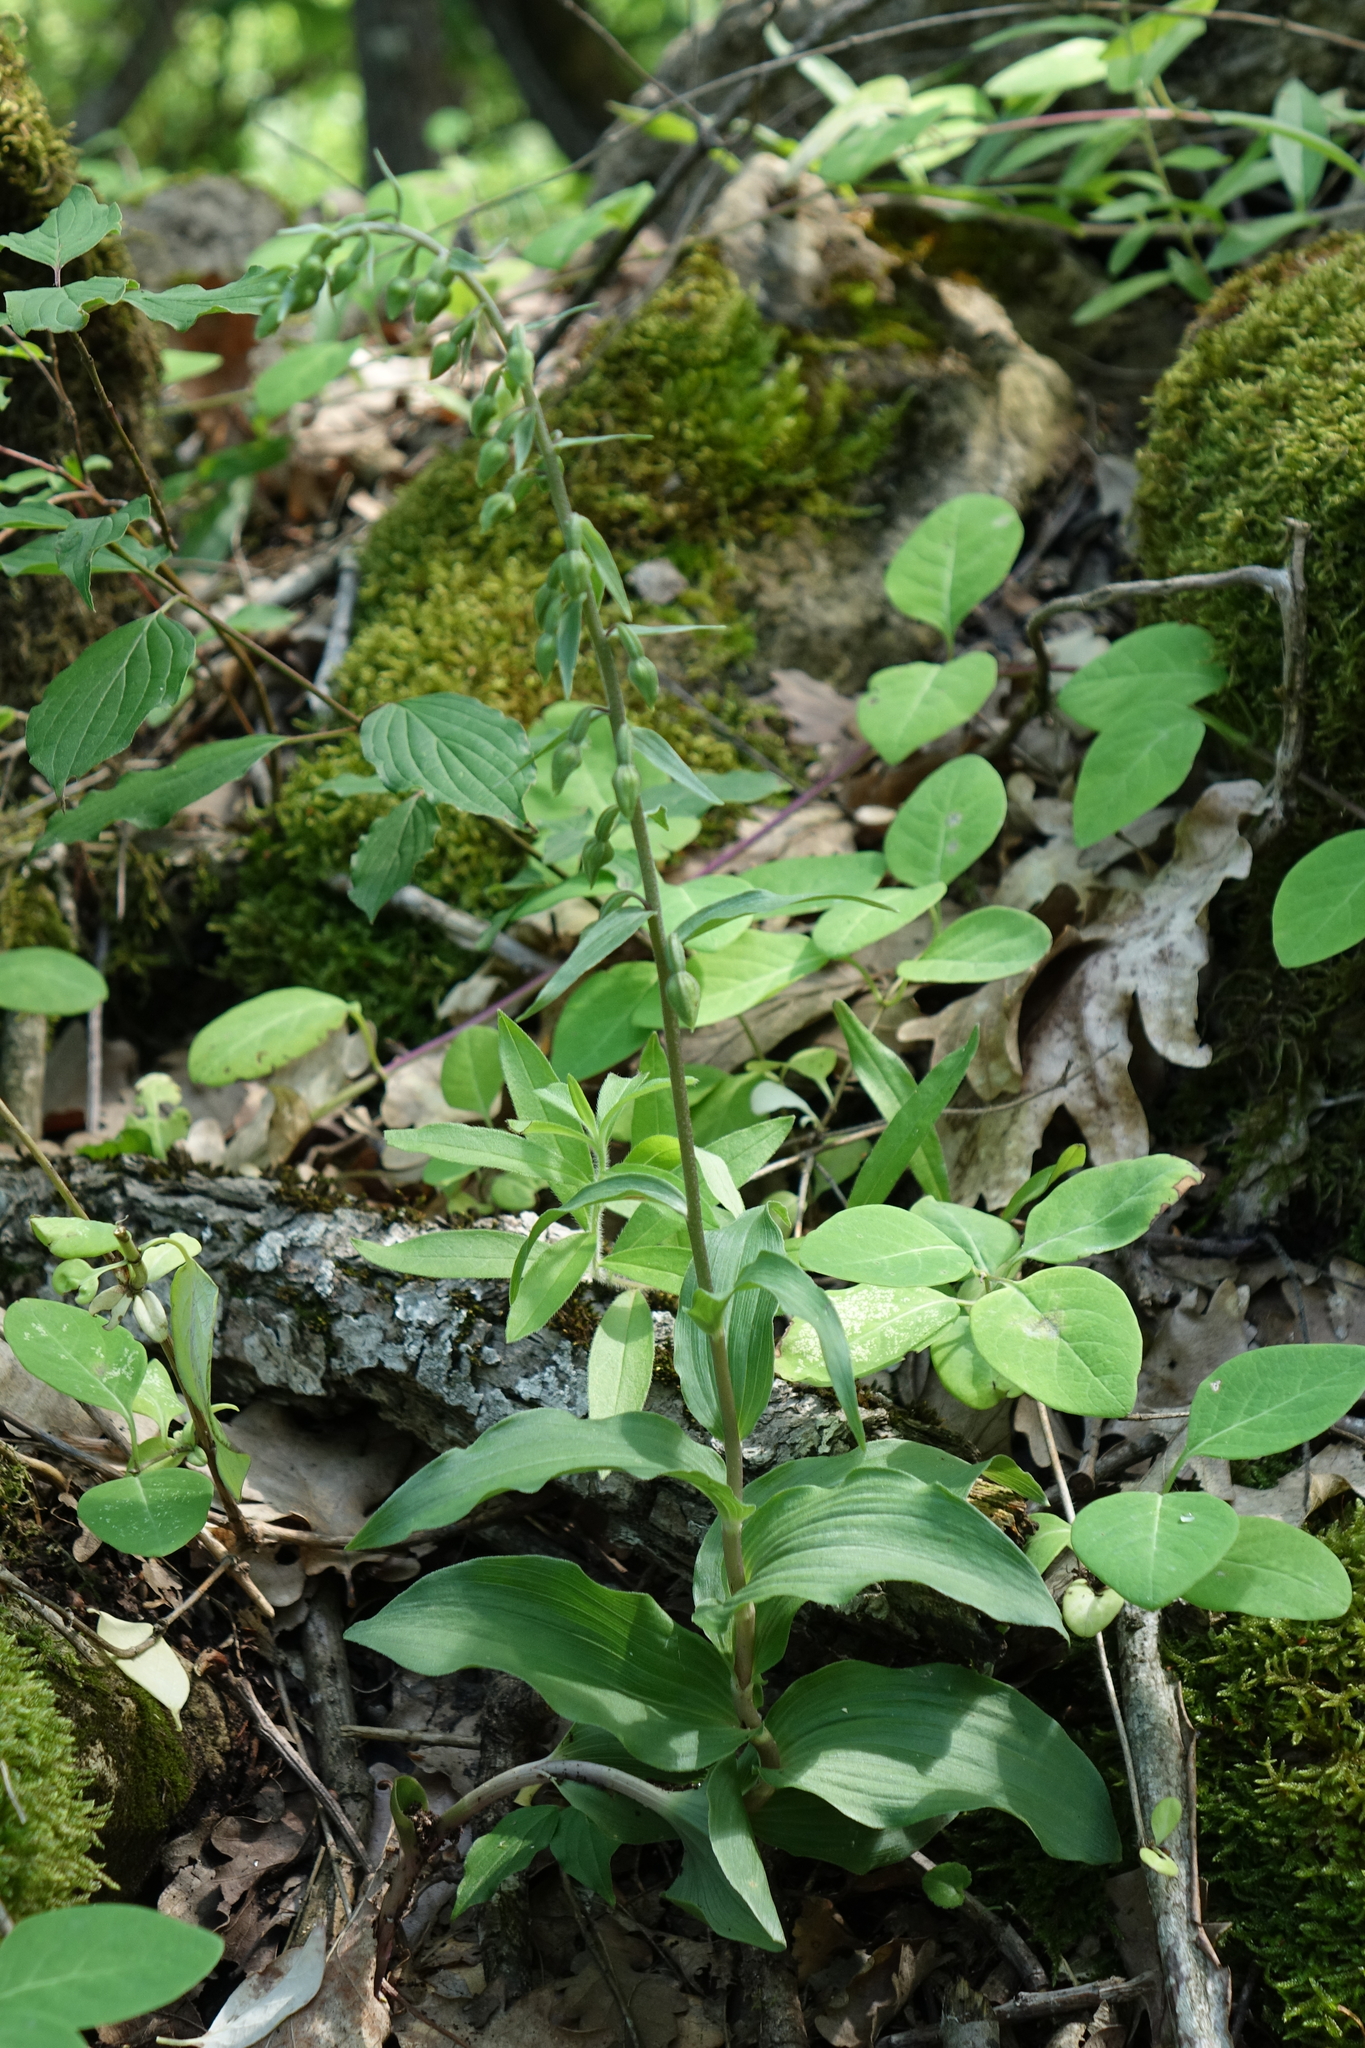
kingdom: Plantae
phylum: Tracheophyta
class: Liliopsida
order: Asparagales
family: Orchidaceae
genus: Epipactis
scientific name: Epipactis helleborine
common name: Broad-leaved helleborine
